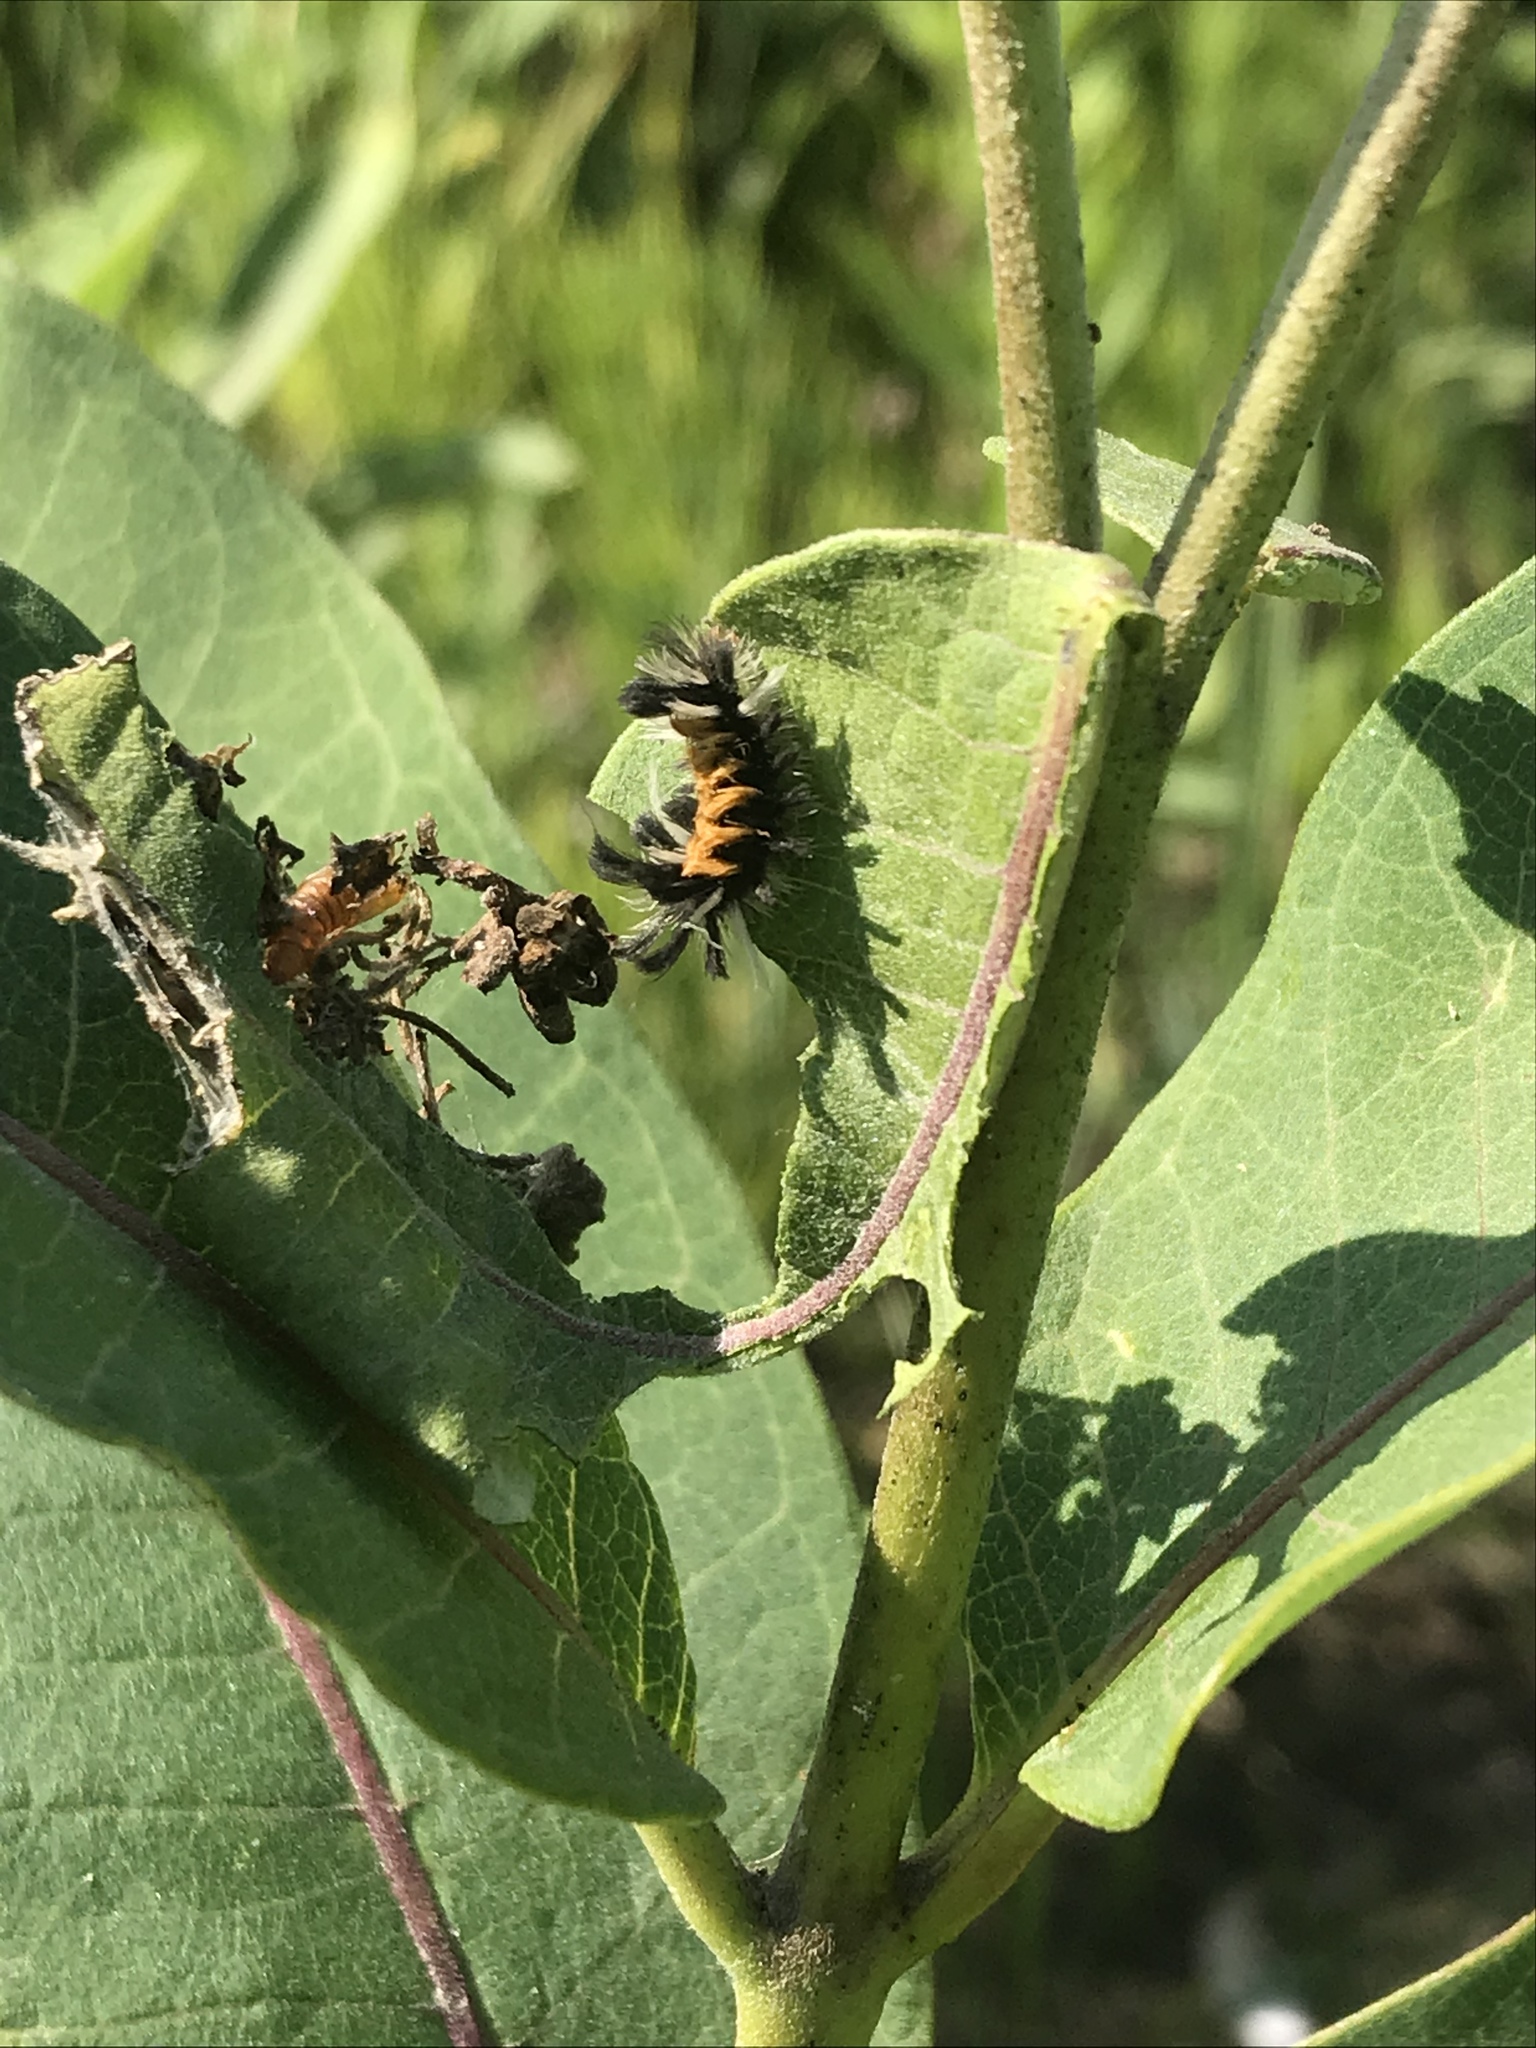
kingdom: Animalia
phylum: Arthropoda
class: Insecta
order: Lepidoptera
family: Erebidae
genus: Euchaetes
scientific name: Euchaetes egle
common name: Milkweed tussock moth
